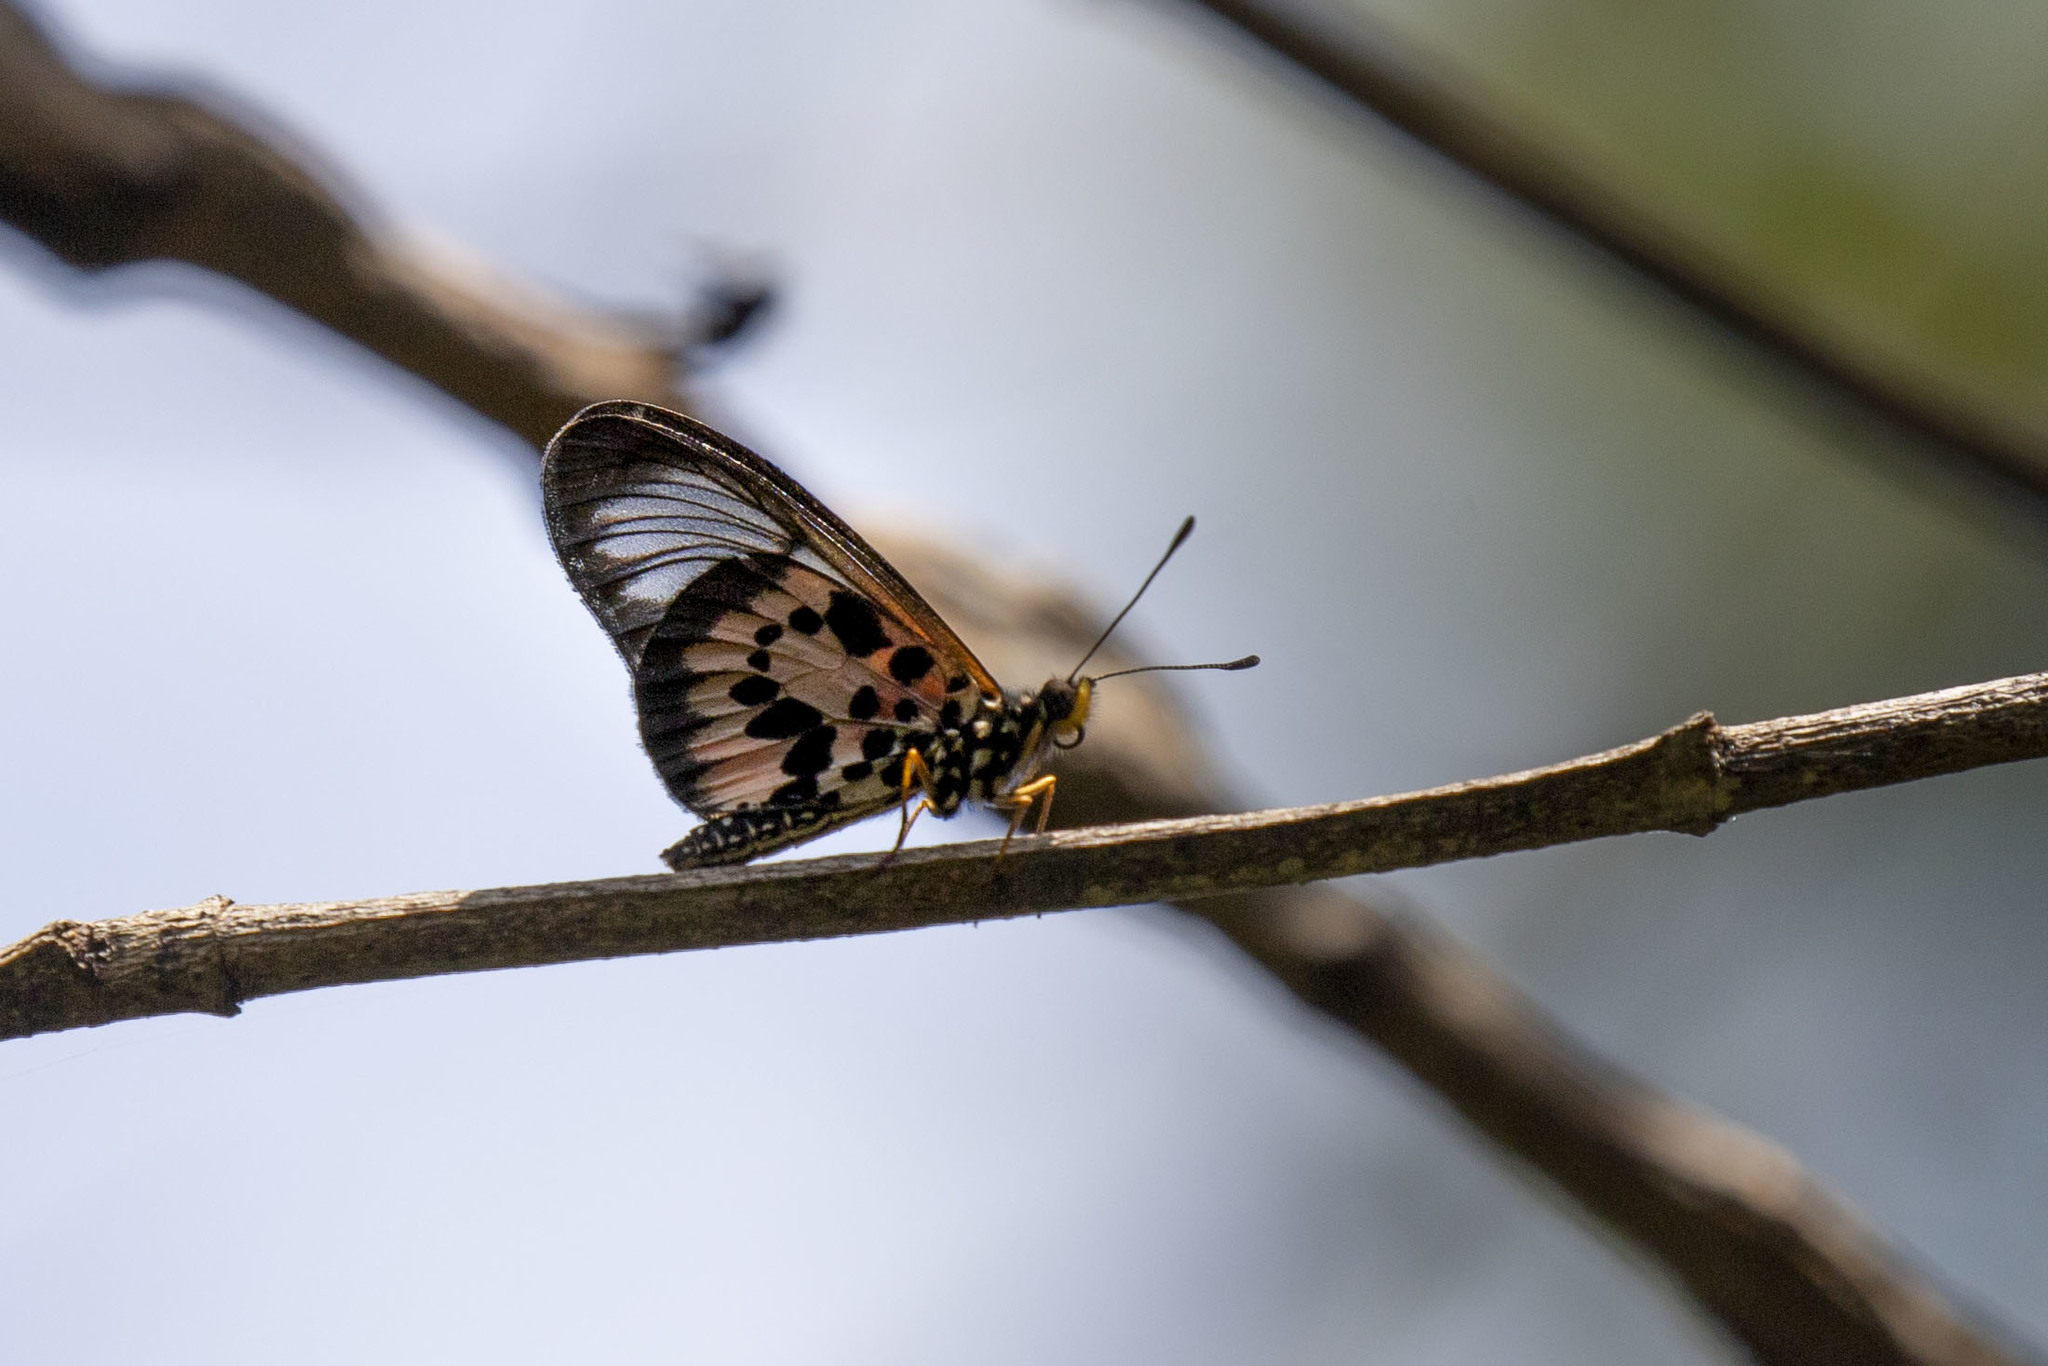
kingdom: Animalia
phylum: Arthropoda
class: Insecta
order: Lepidoptera
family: Nymphalidae
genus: Acraea
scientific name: Acraea
